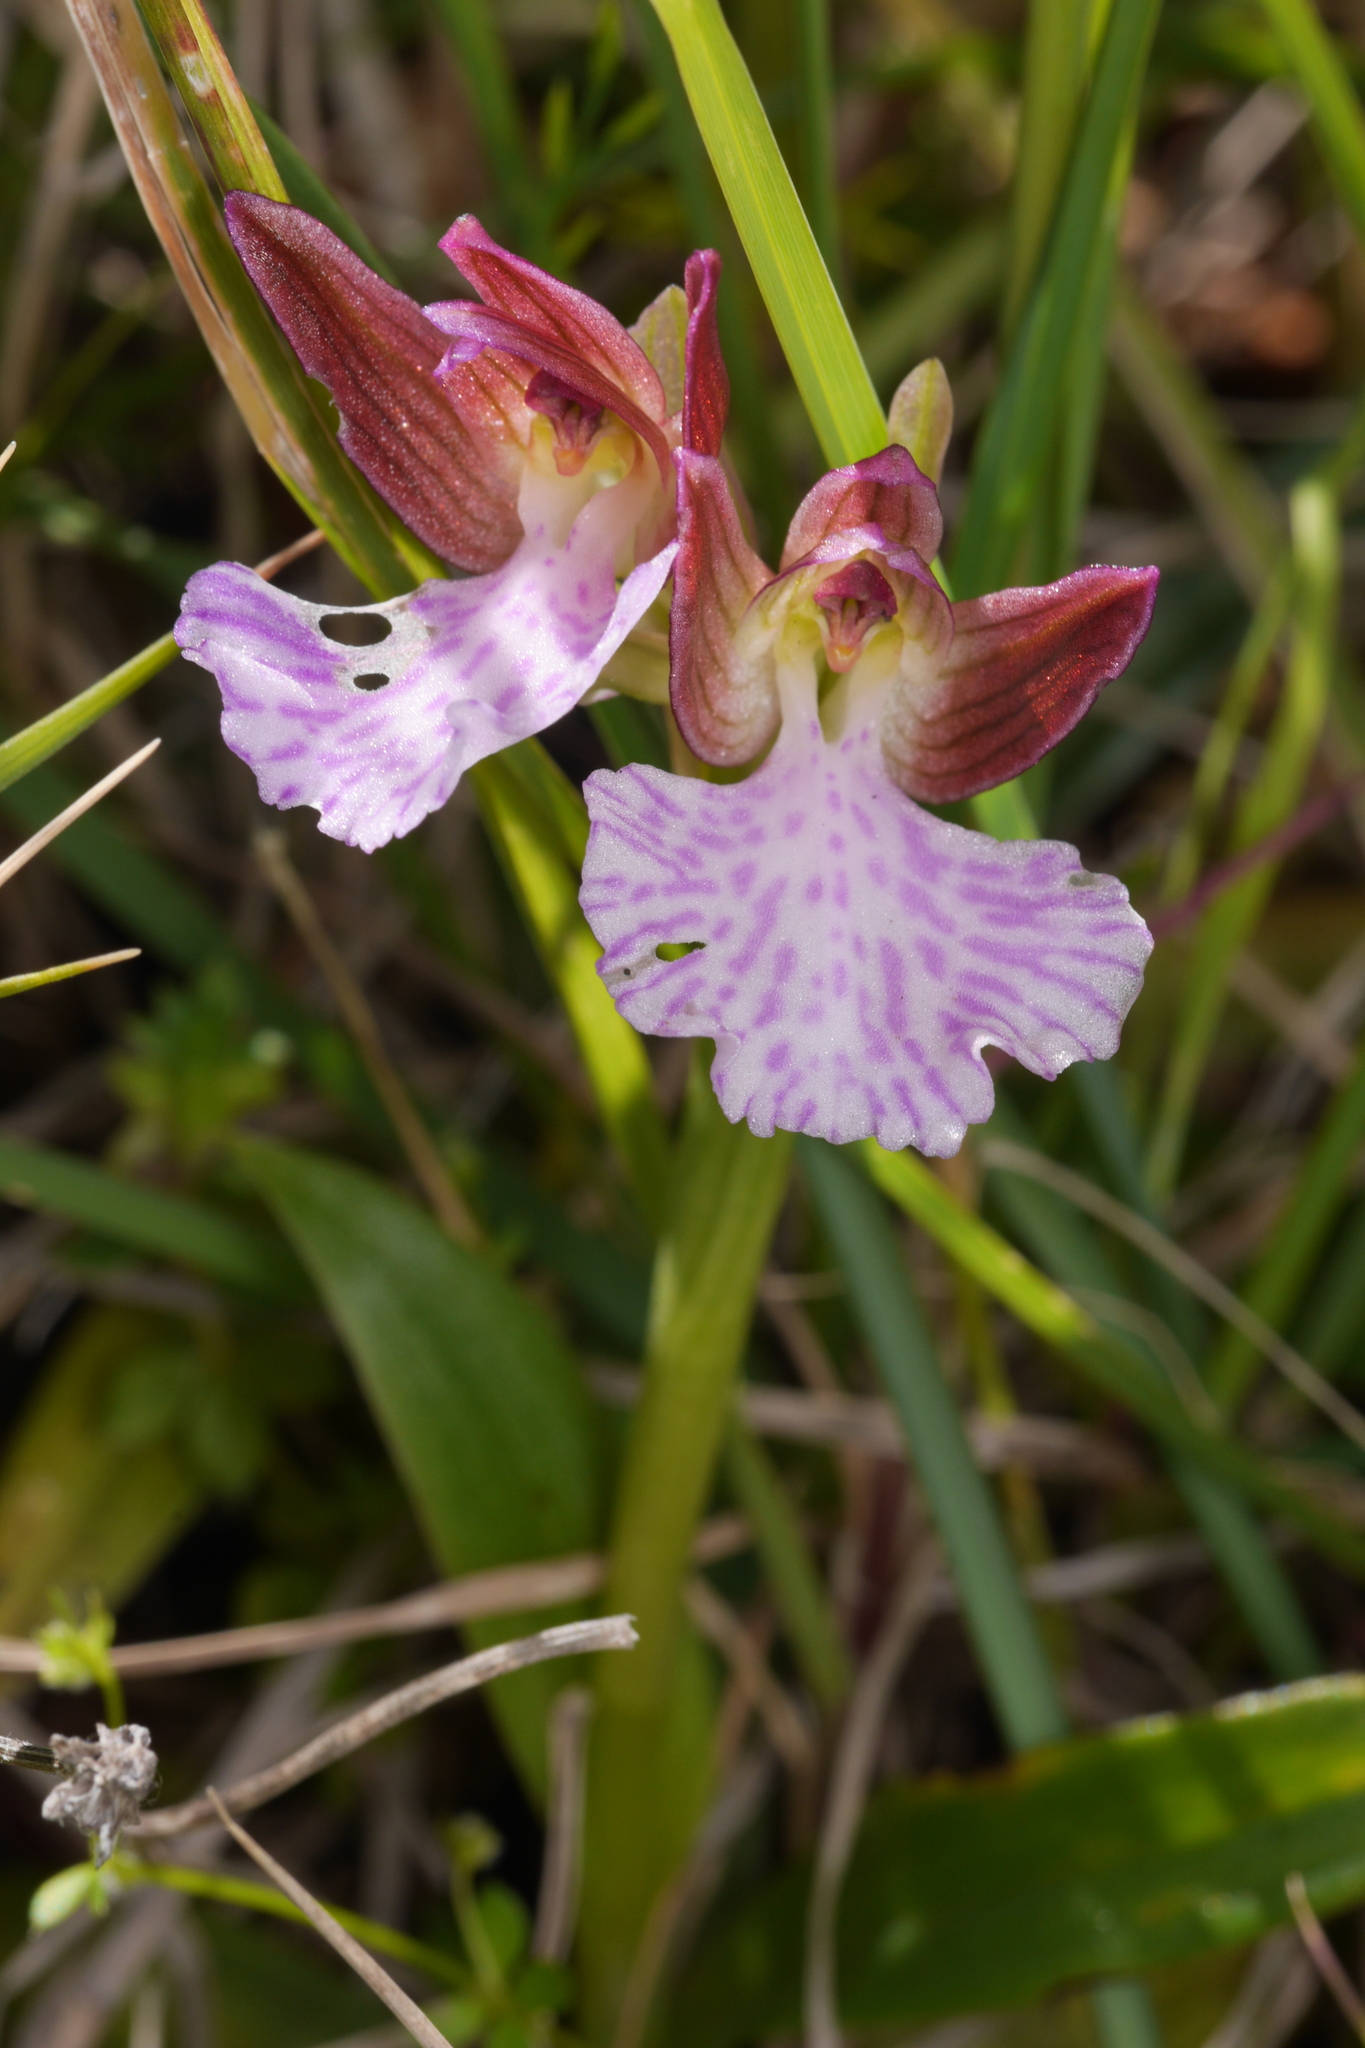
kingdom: Plantae
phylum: Tracheophyta
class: Liliopsida
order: Asparagales
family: Orchidaceae
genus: Anacamptis
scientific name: Anacamptis papilionacea
